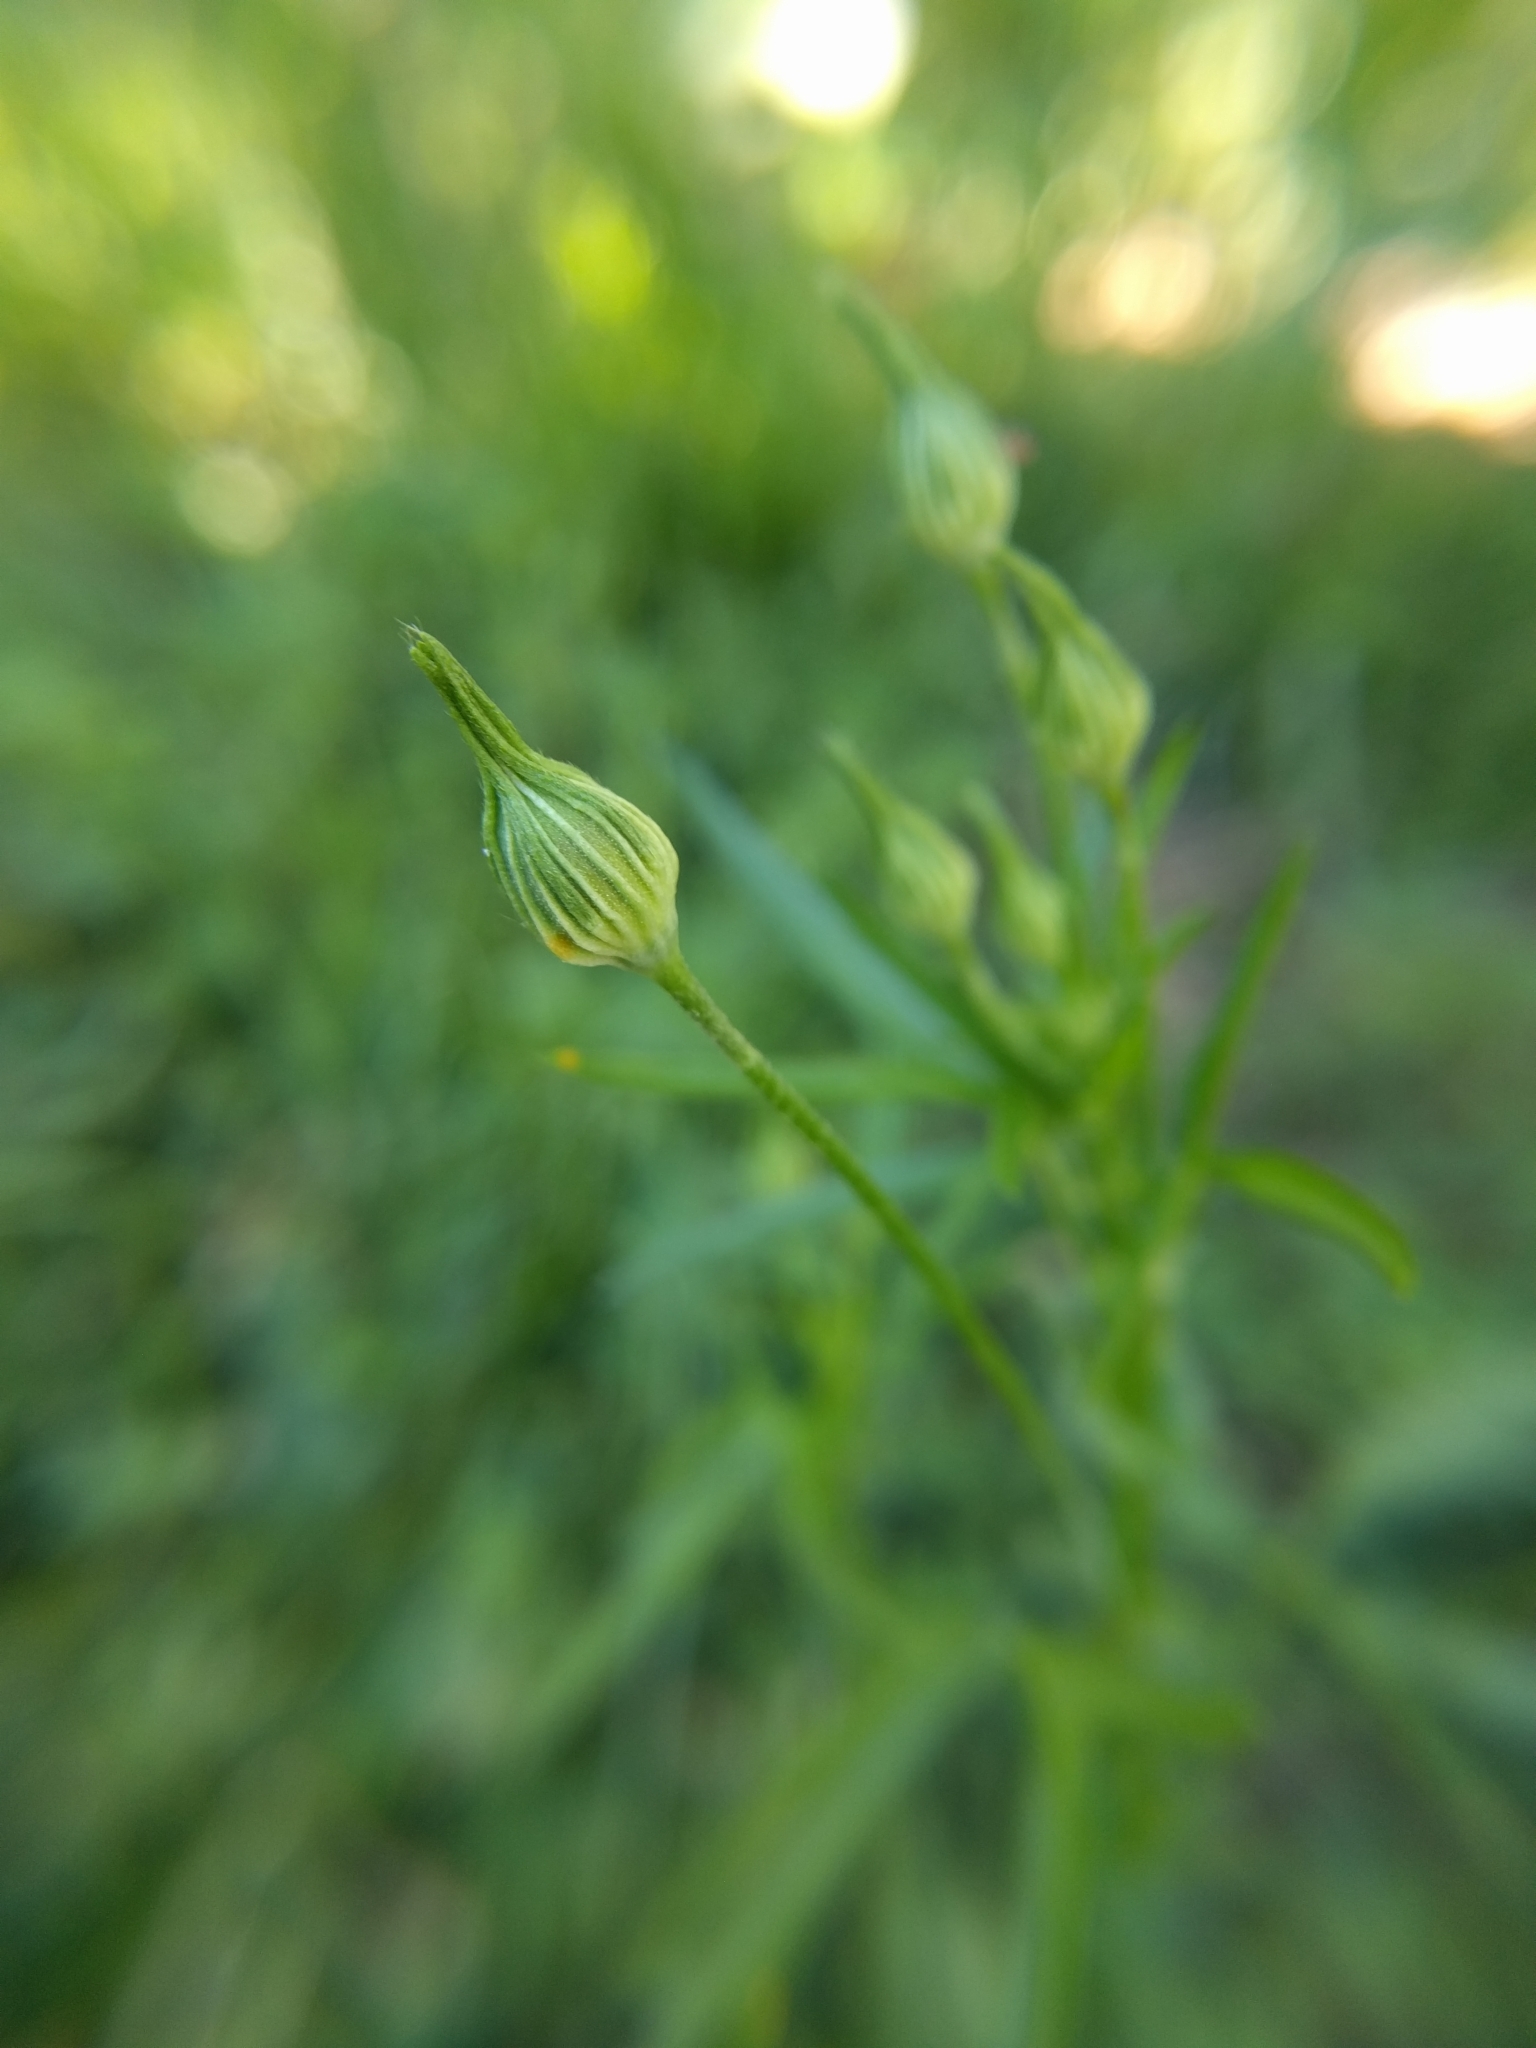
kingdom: Plantae
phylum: Tracheophyta
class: Magnoliopsida
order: Malvales
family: Malvaceae
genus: Callirhoe
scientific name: Callirhoe leiocarpa
